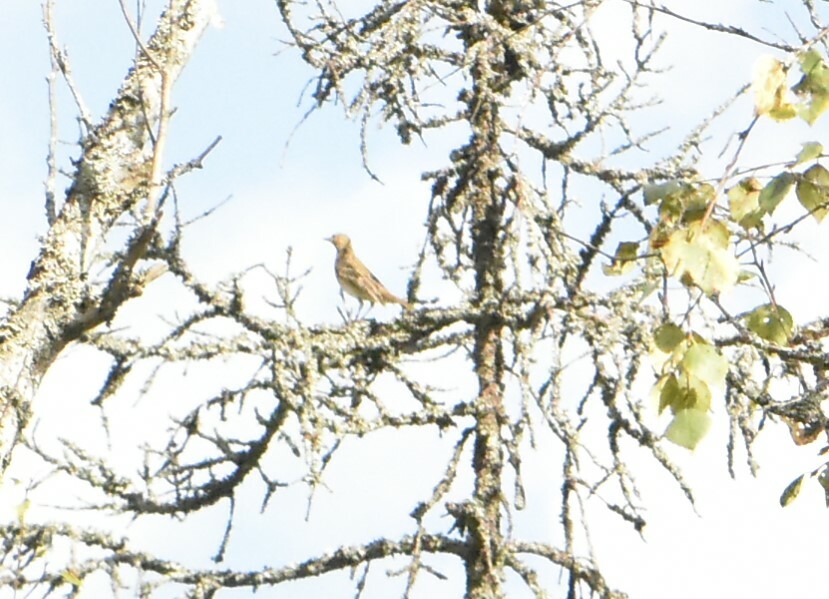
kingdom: Animalia
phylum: Chordata
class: Aves
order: Passeriformes
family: Motacillidae
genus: Anthus
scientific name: Anthus trivialis
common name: Tree pipit
